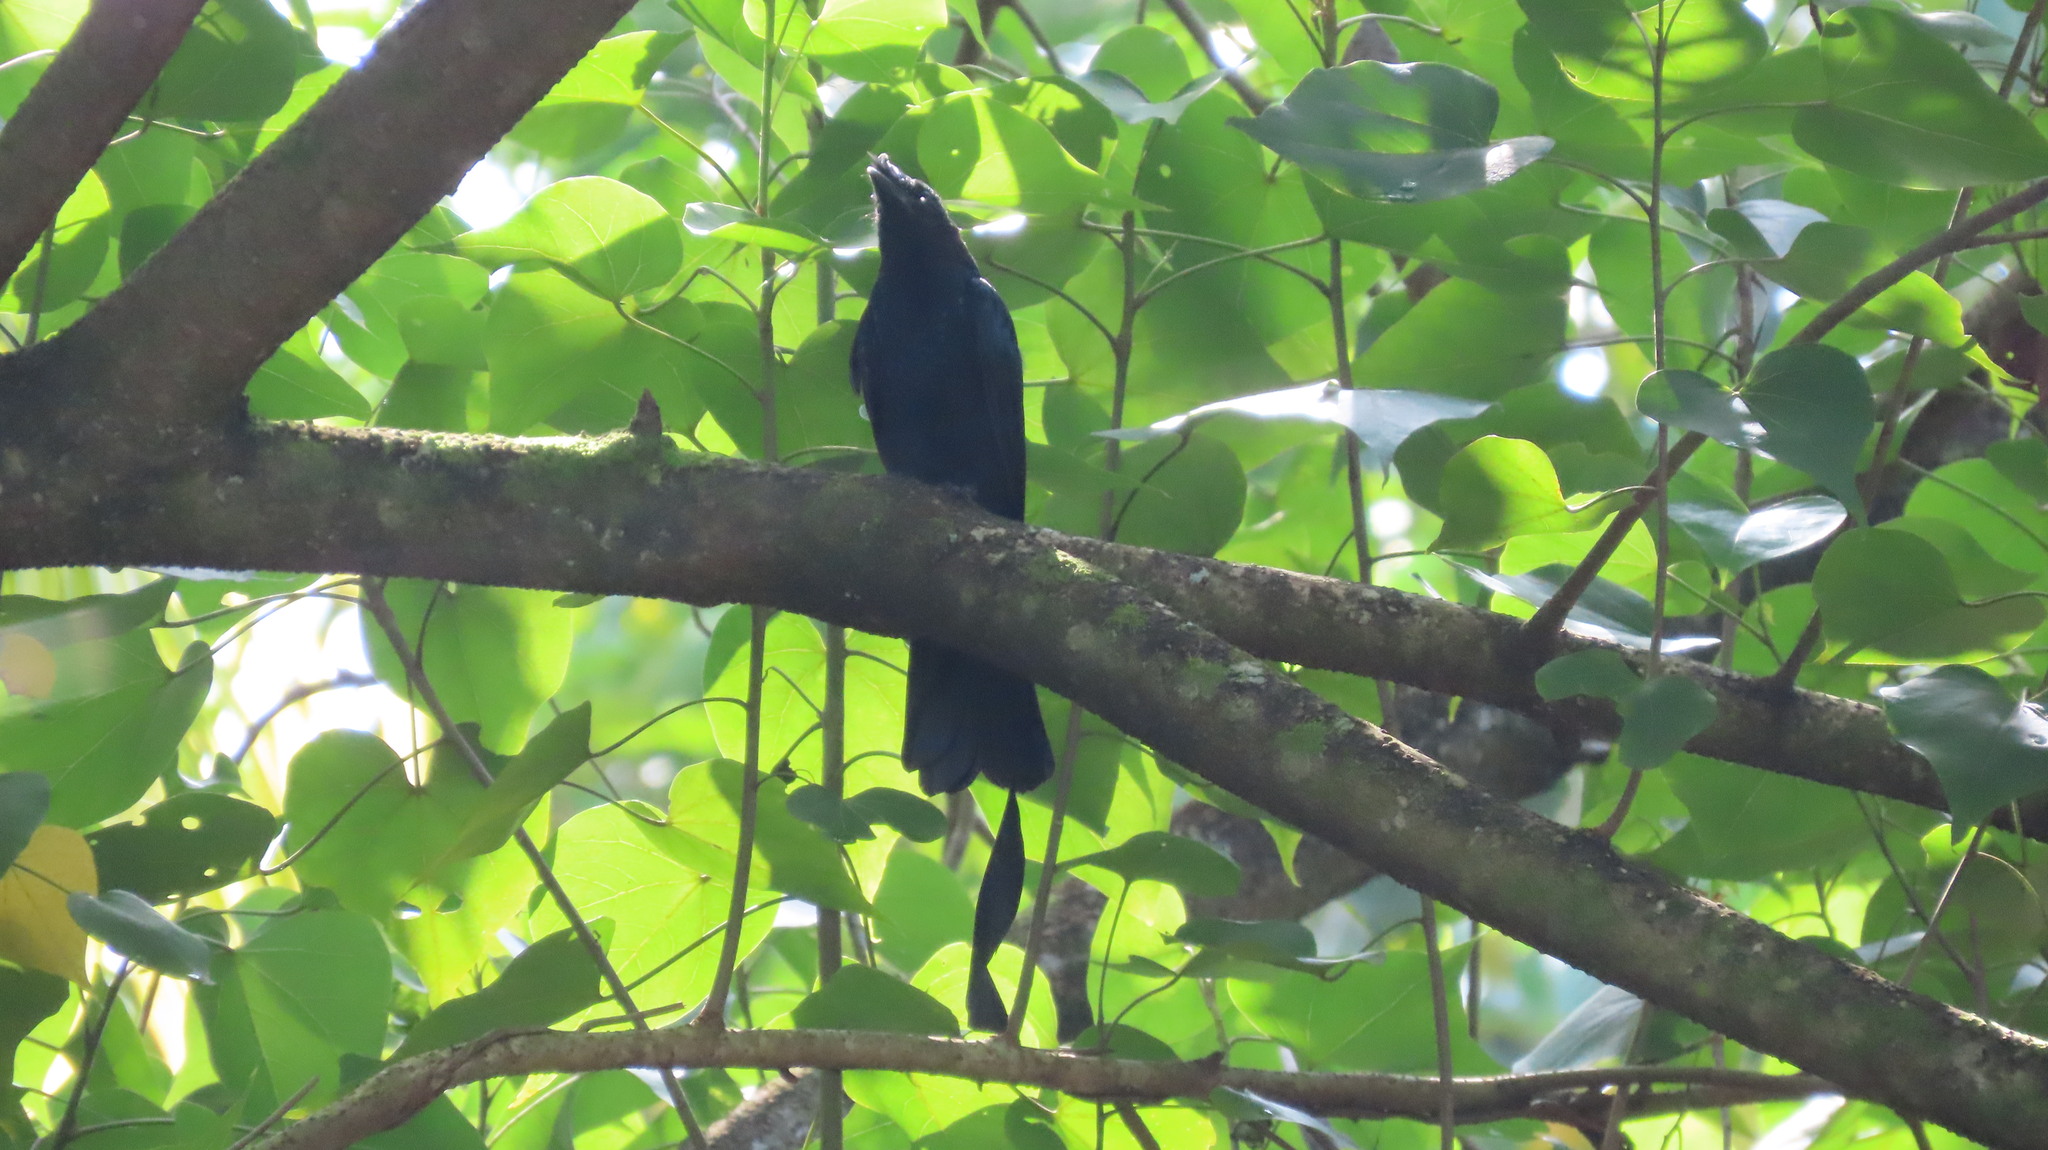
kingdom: Animalia
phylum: Chordata
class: Aves
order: Passeriformes
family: Dicruridae
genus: Dicrurus
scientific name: Dicrurus paradiseus
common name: Greater racket-tailed drongo
